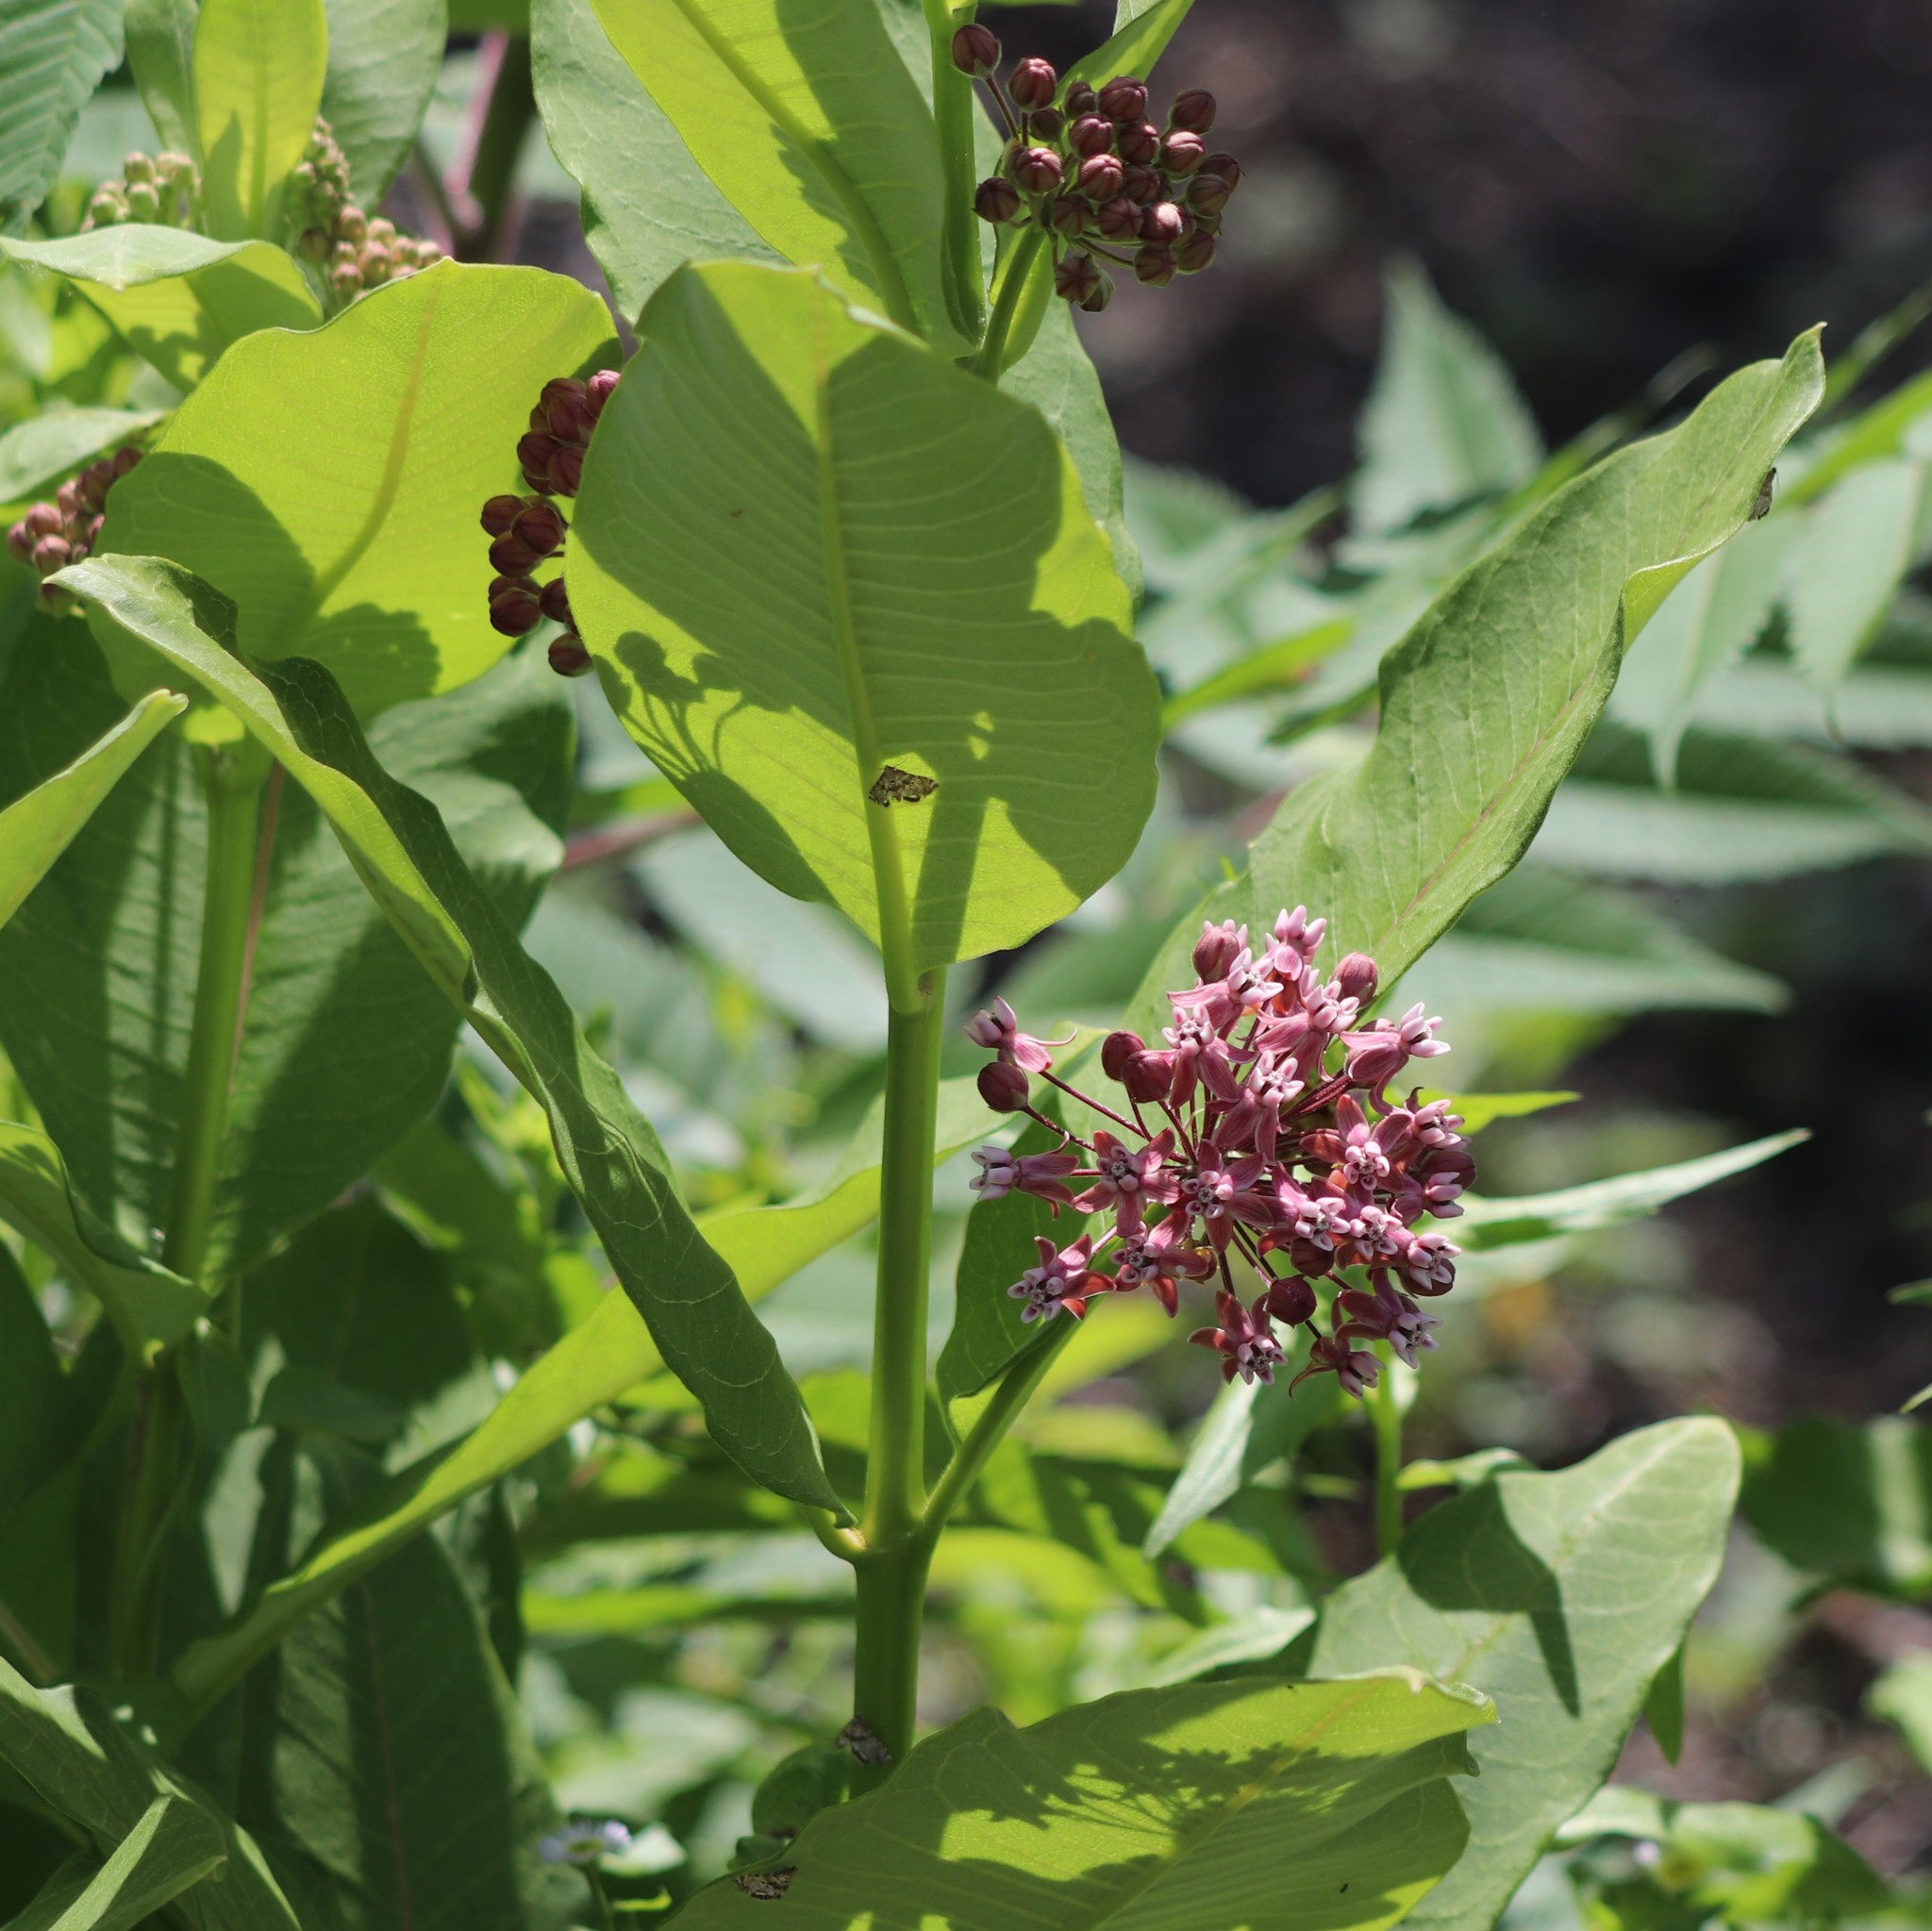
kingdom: Plantae
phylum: Tracheophyta
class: Magnoliopsida
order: Gentianales
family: Apocynaceae
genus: Asclepias
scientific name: Asclepias syriaca
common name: Common milkweed
